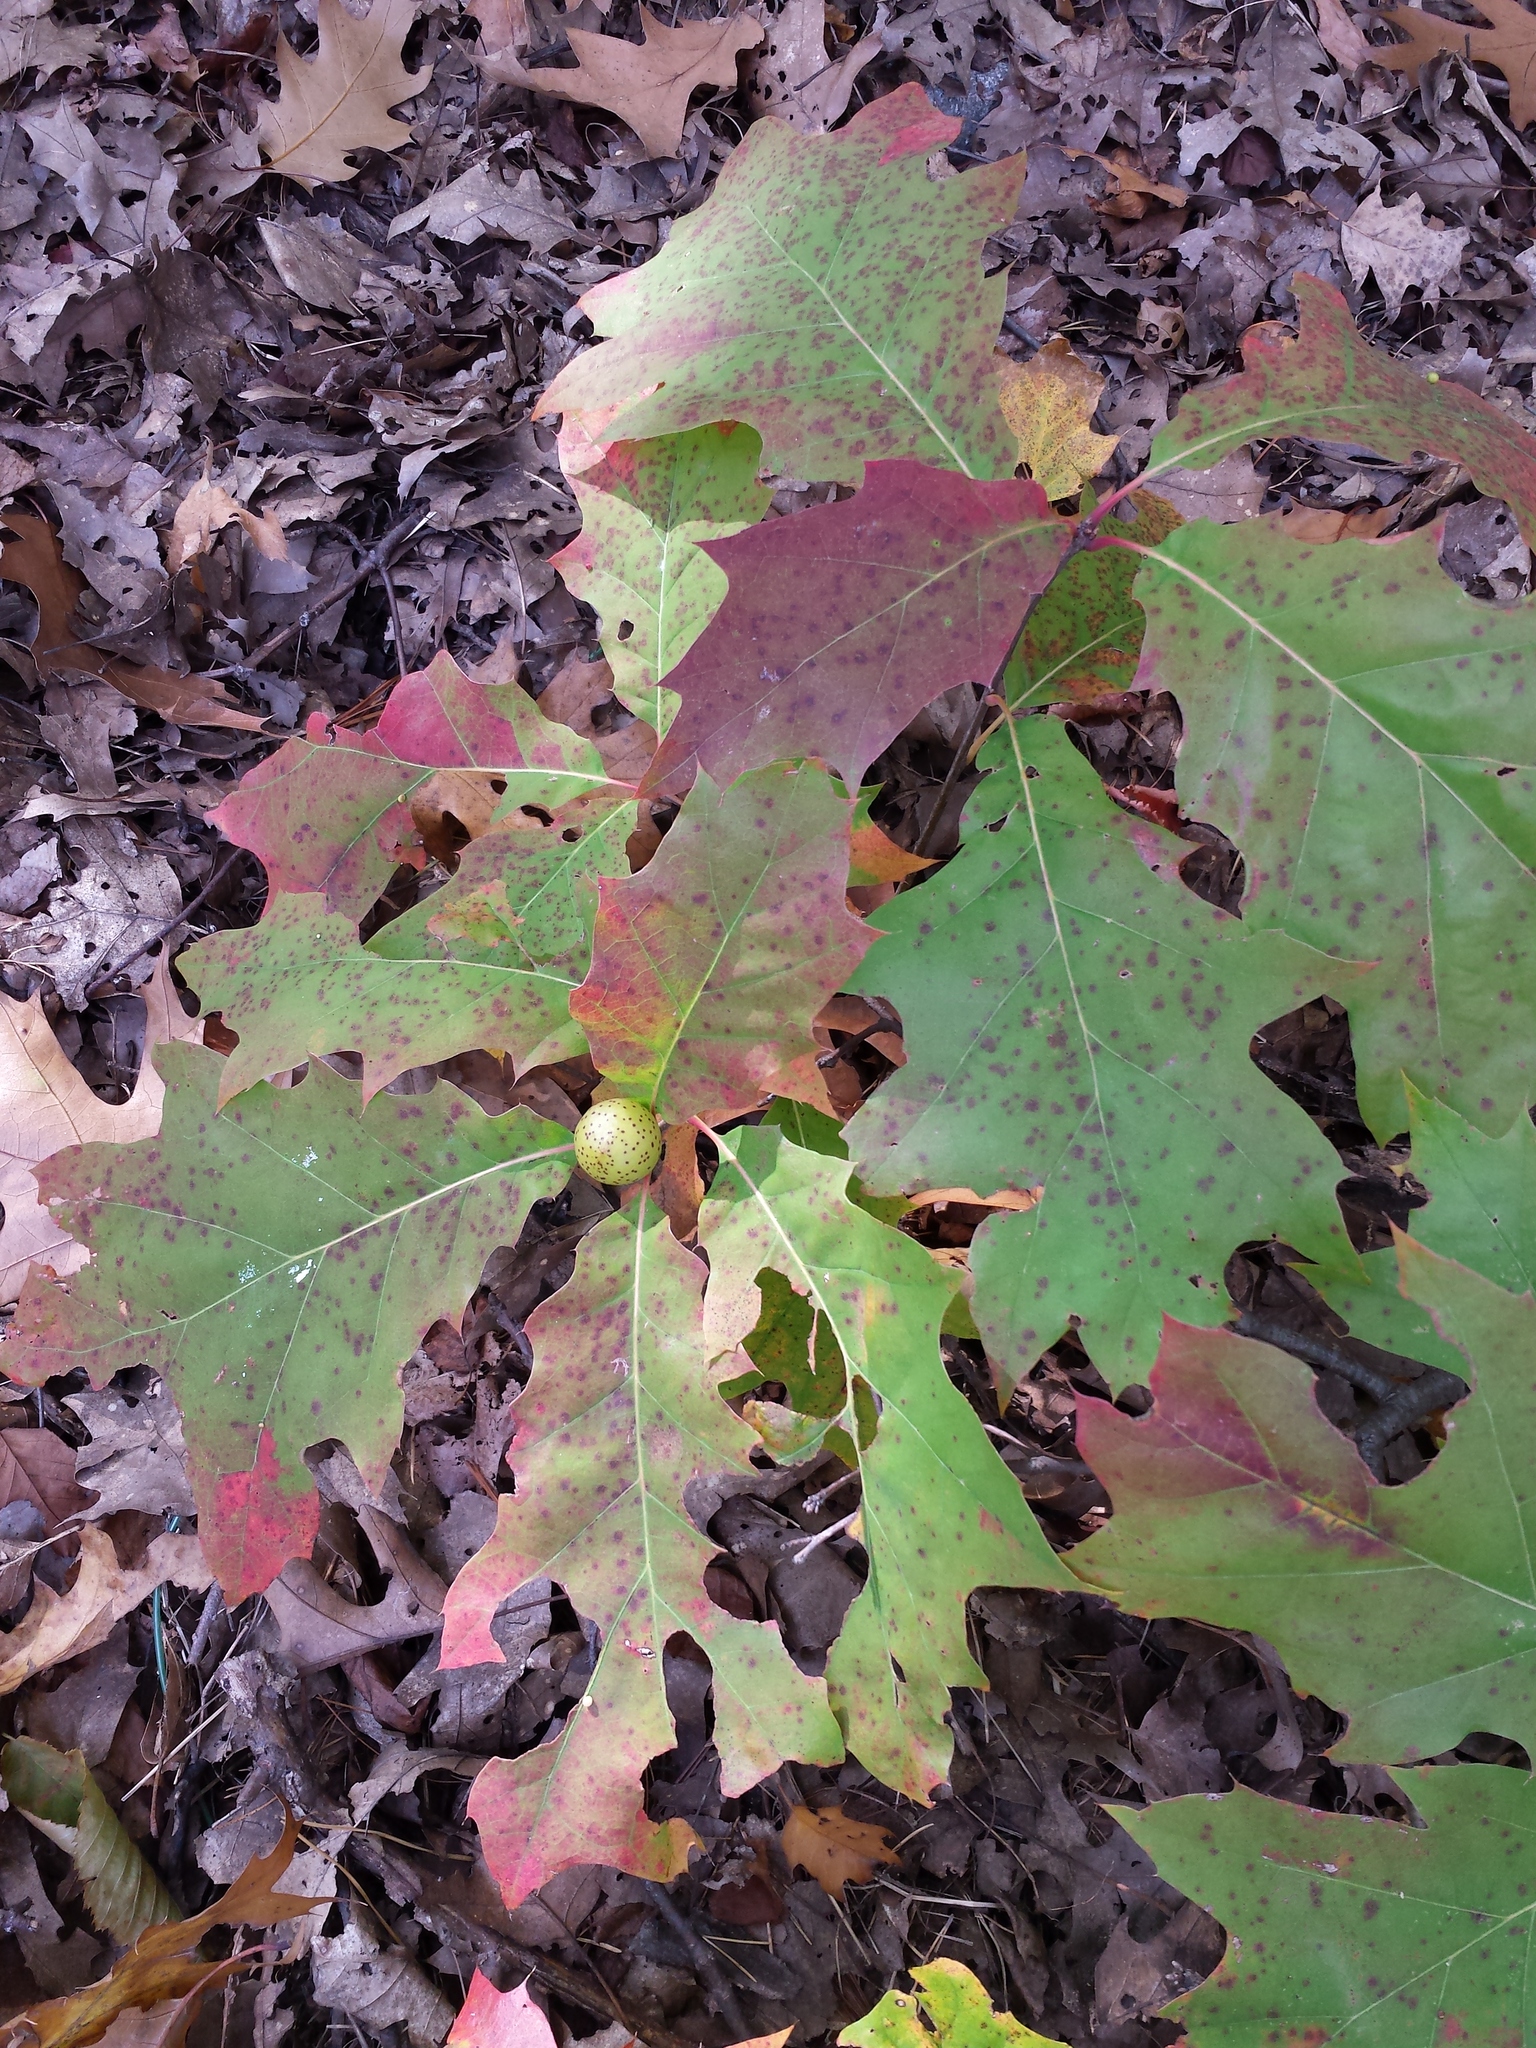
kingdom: Plantae
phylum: Tracheophyta
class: Magnoliopsida
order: Fagales
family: Fagaceae
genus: Quercus
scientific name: Quercus rubra
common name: Red oak
